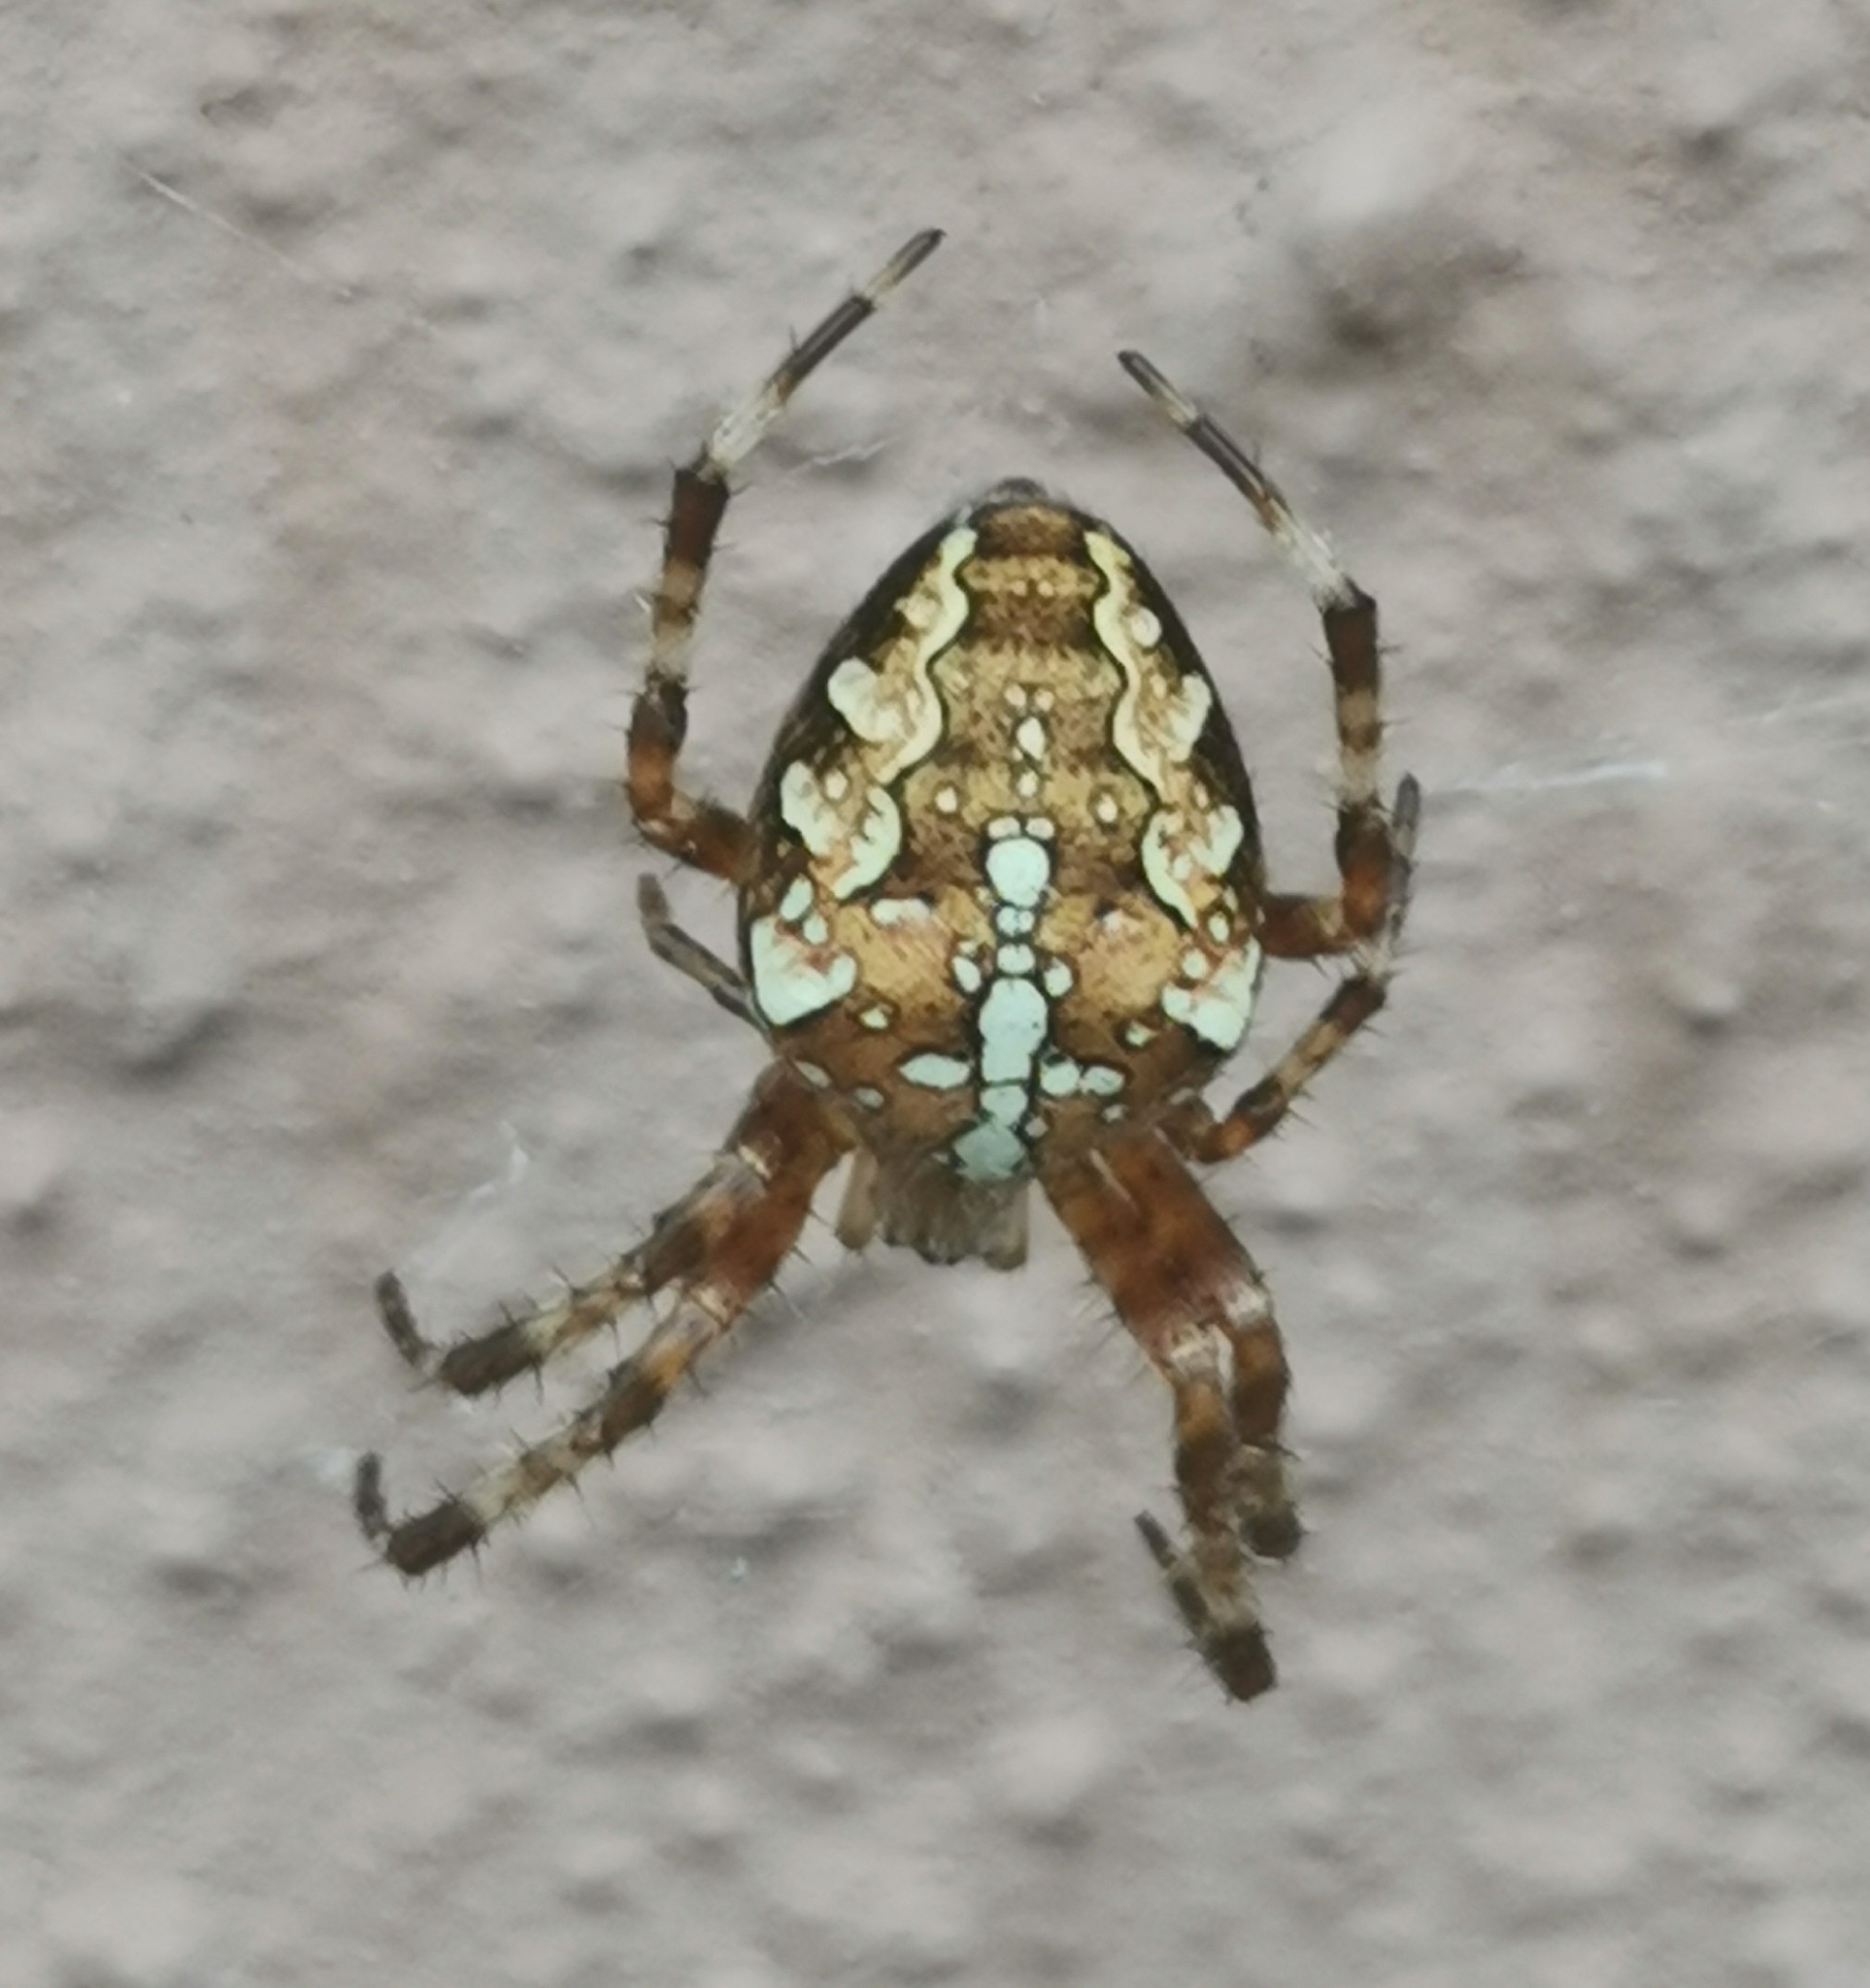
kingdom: Animalia
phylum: Arthropoda
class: Arachnida
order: Araneae
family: Araneidae
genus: Araneus
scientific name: Araneus diadematus
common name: Cross orbweaver
